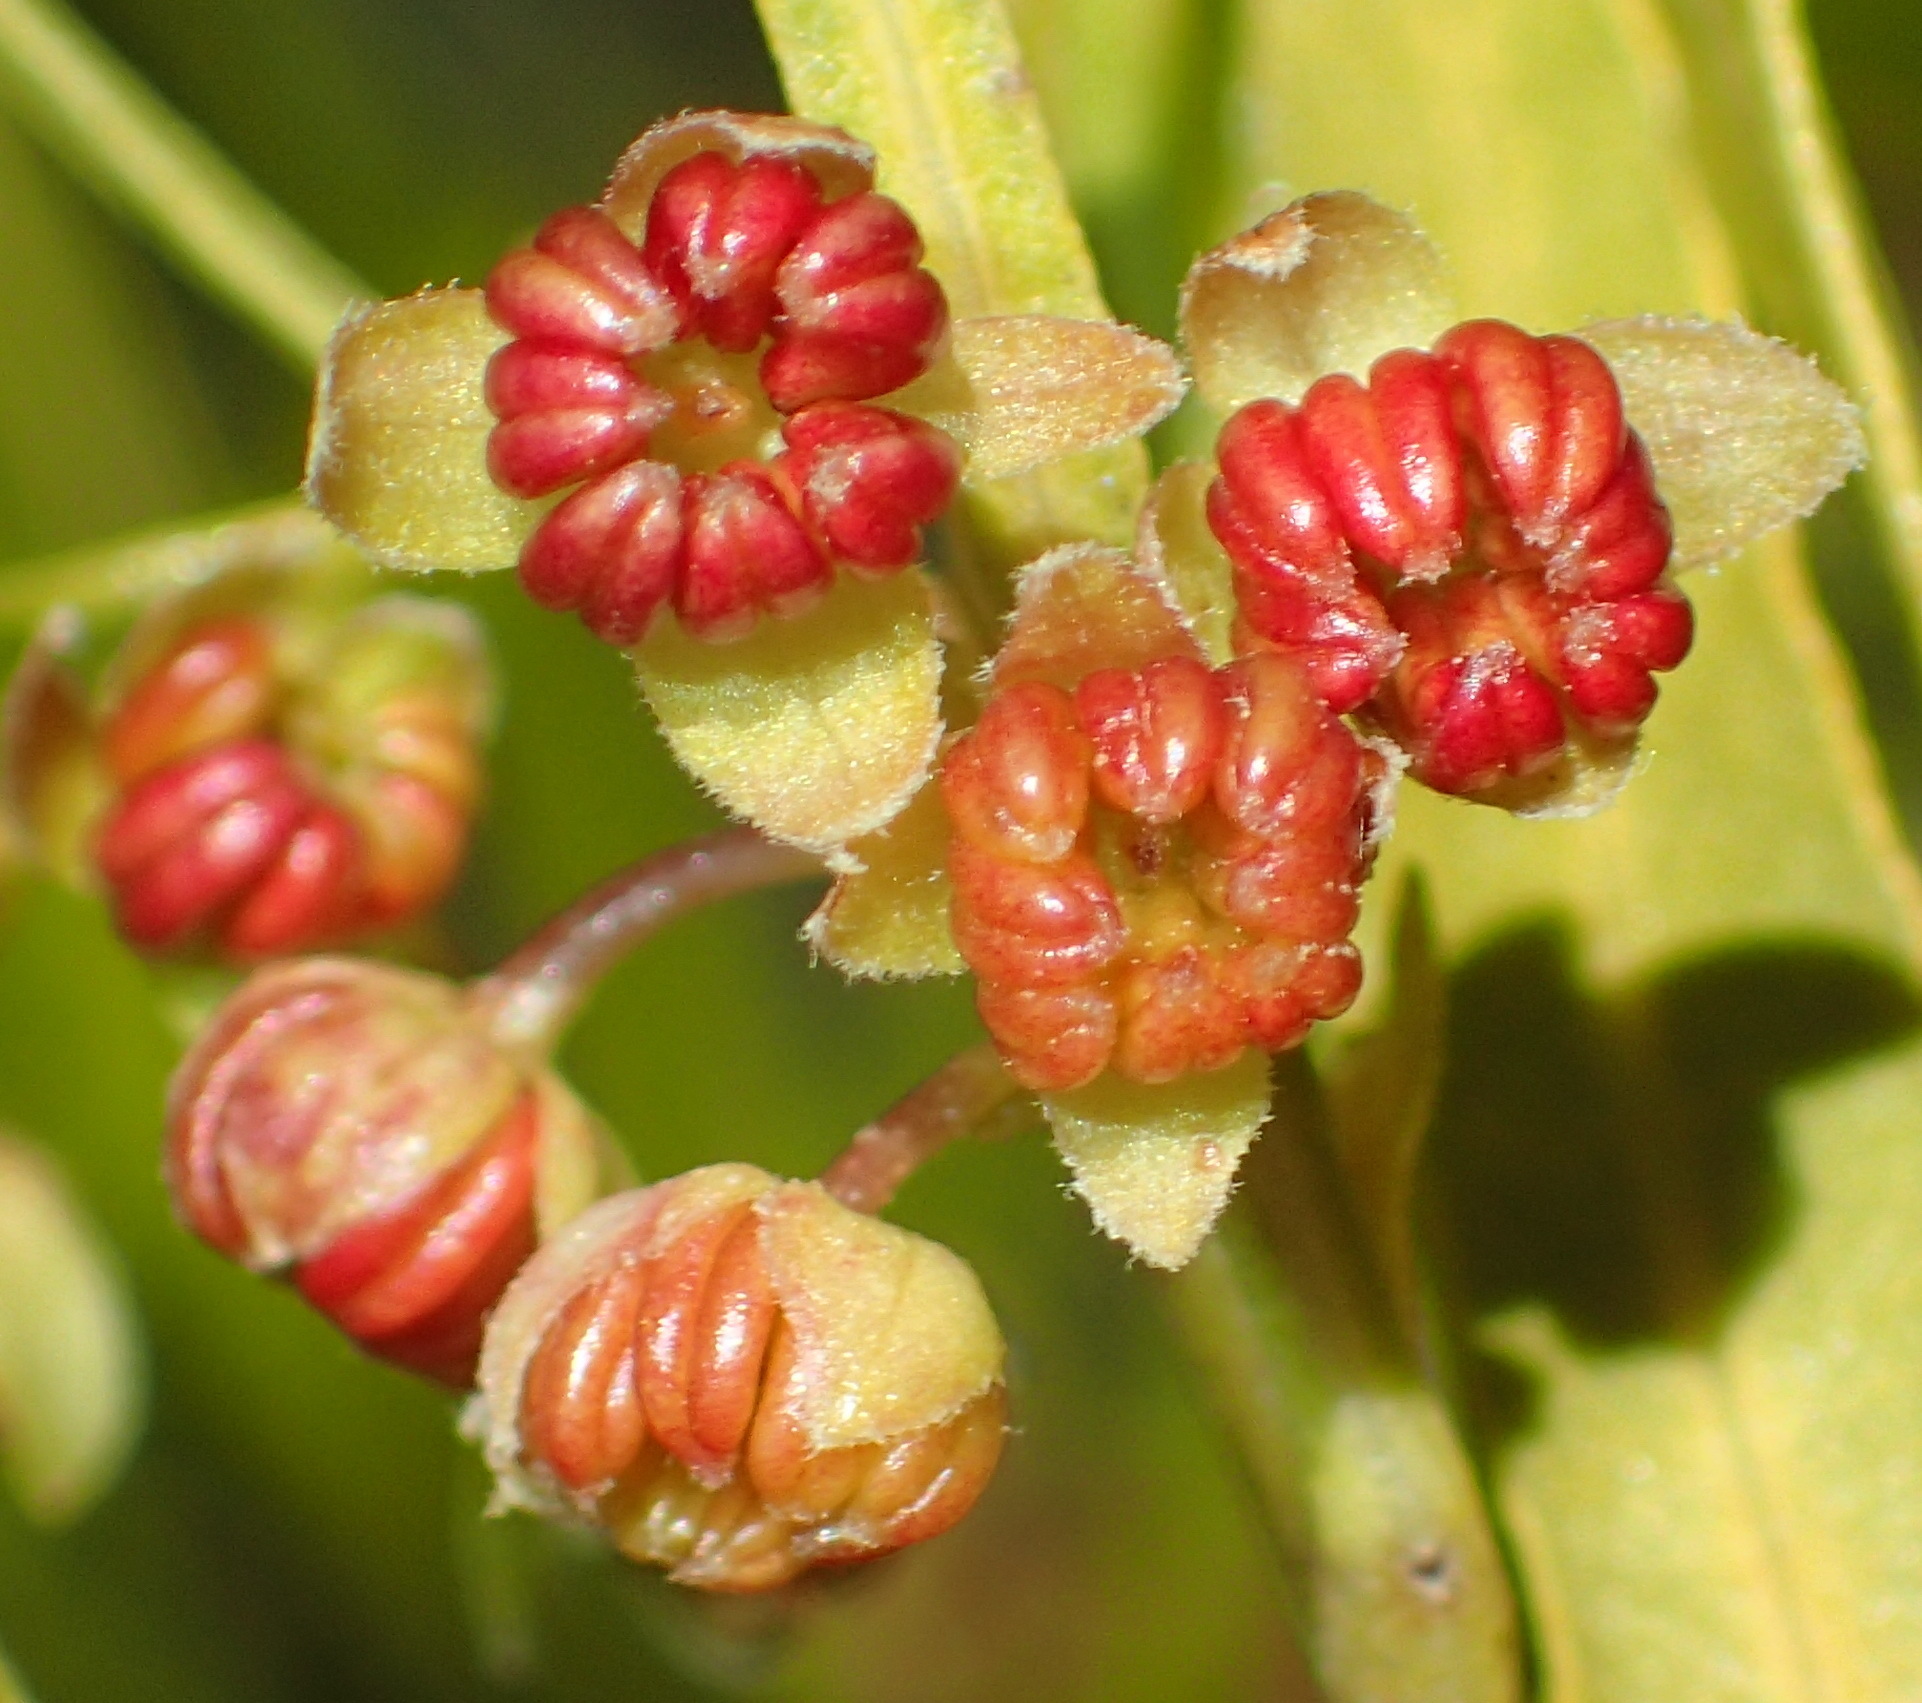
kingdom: Plantae
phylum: Tracheophyta
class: Magnoliopsida
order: Sapindales
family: Sapindaceae
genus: Dodonaea
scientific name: Dodonaea viscosa
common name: Hopbush
